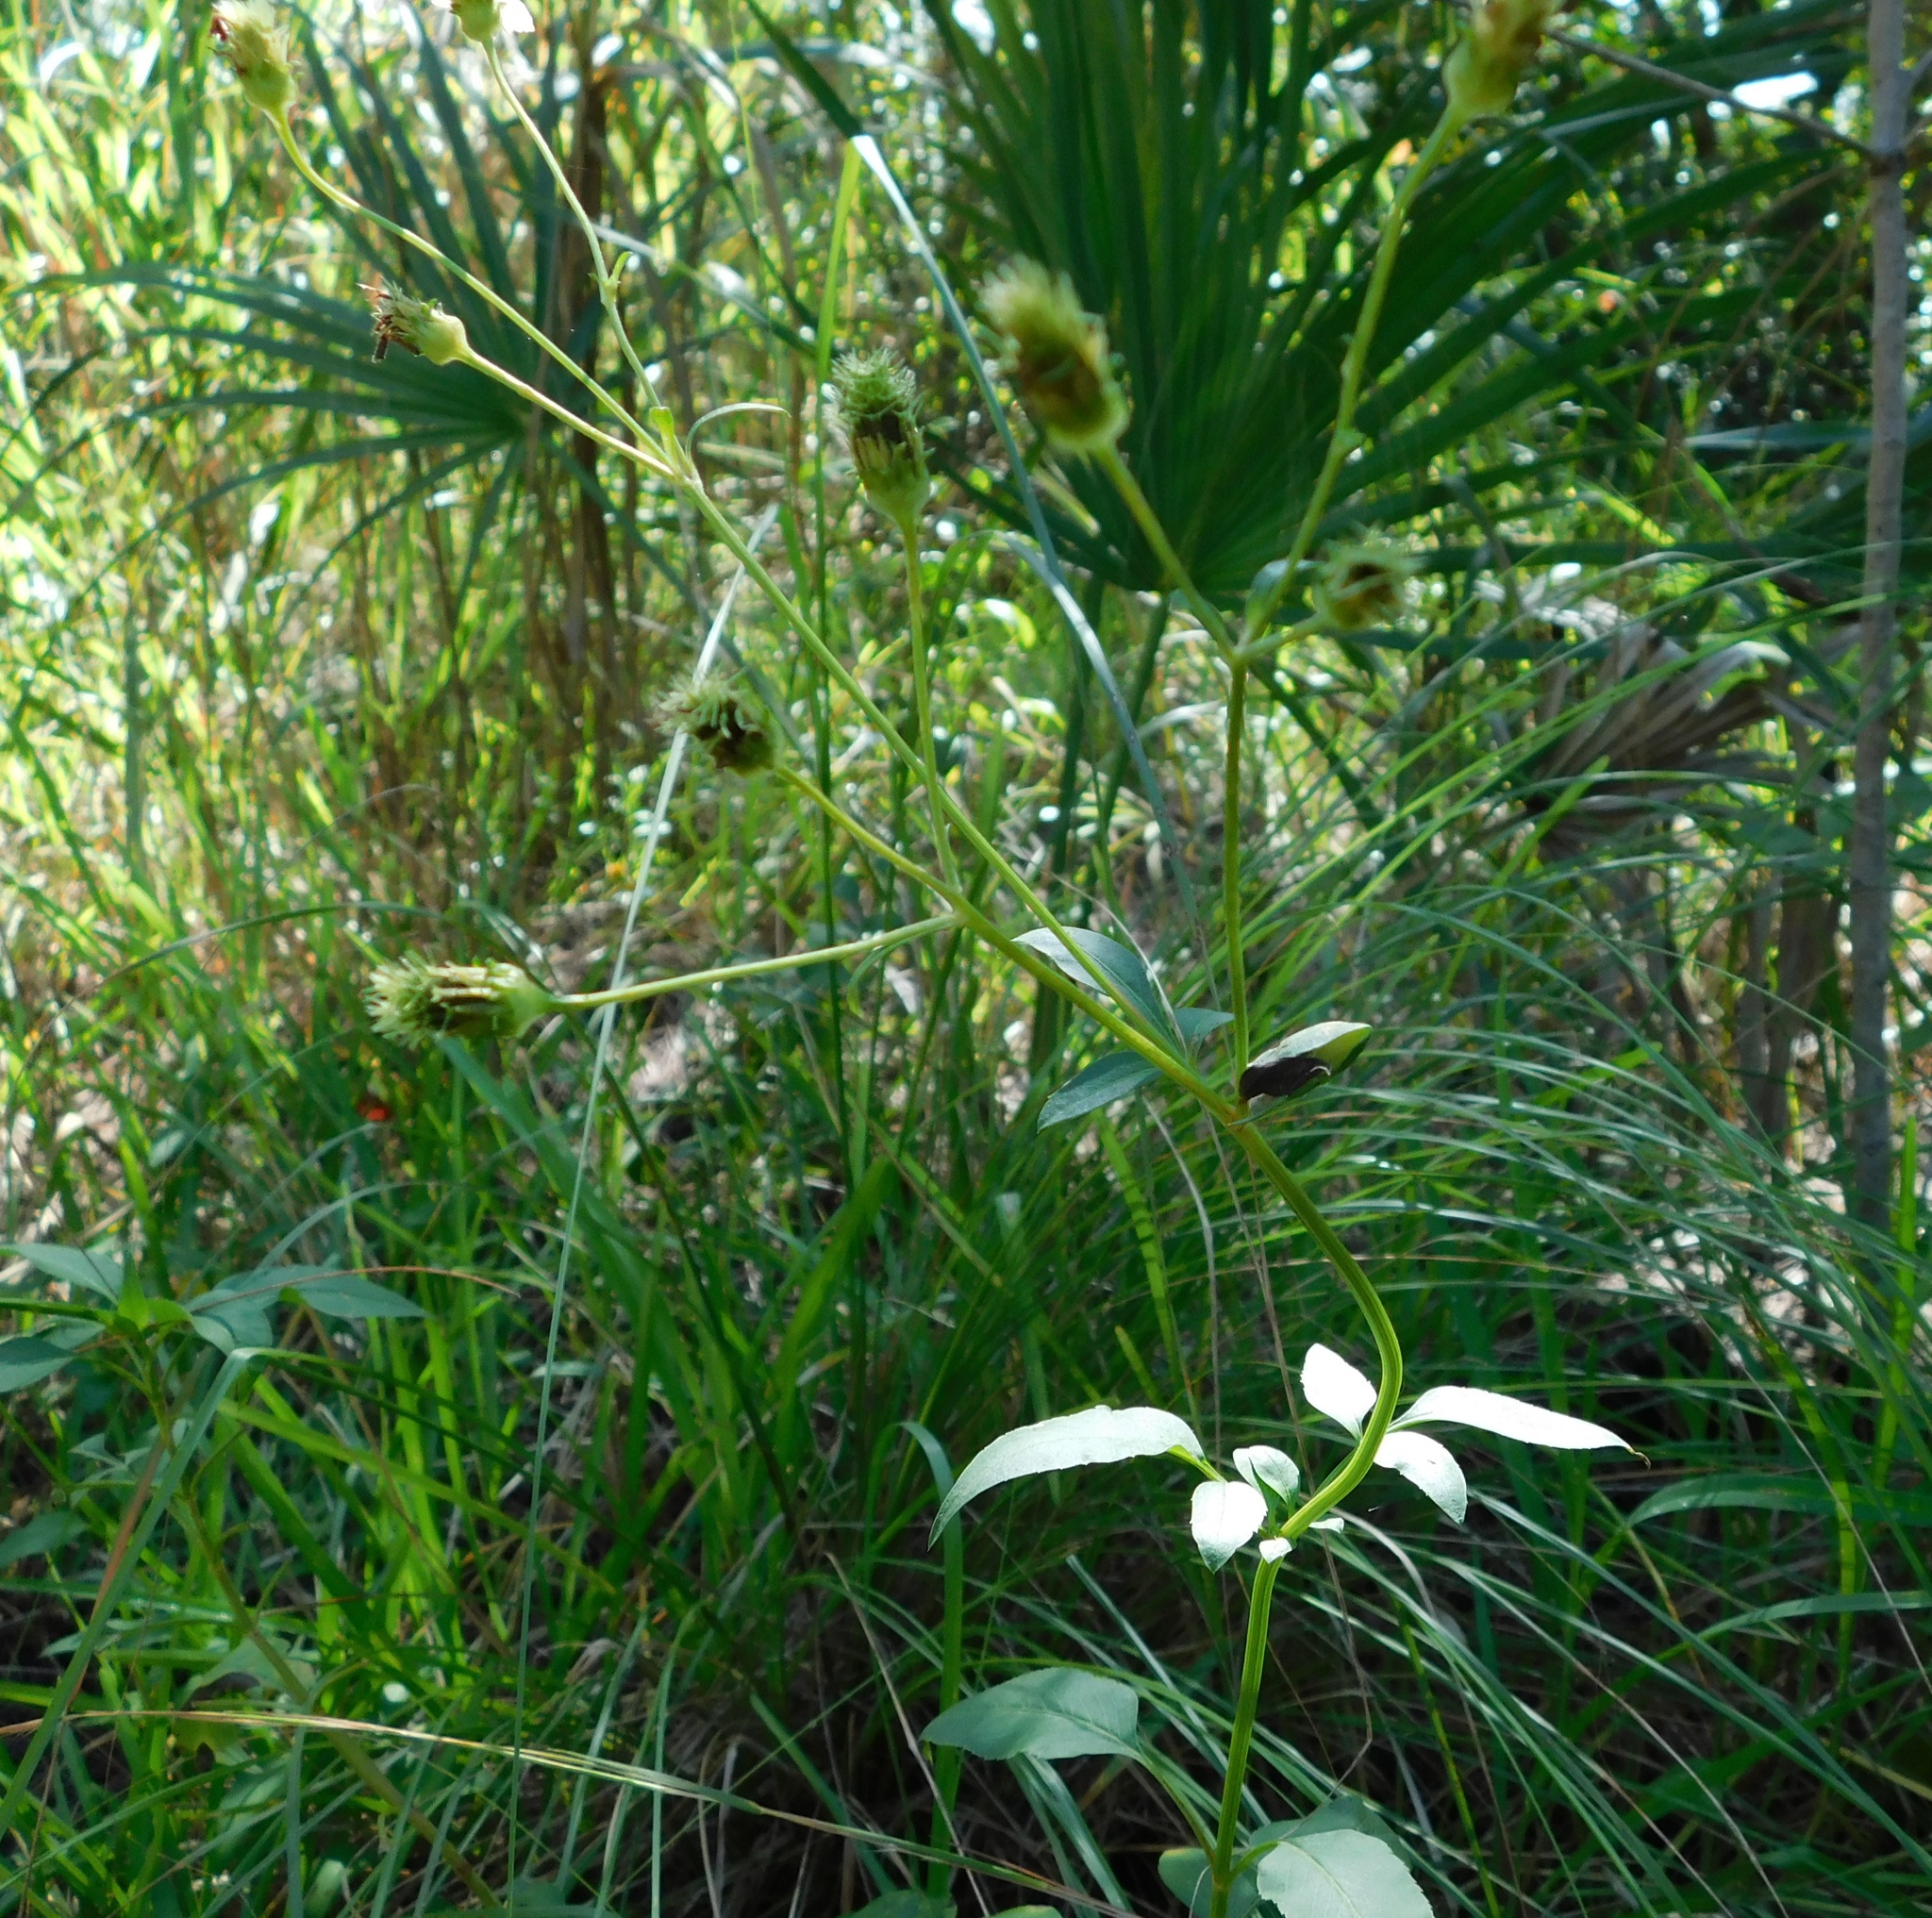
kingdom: Plantae
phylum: Tracheophyta
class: Magnoliopsida
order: Asterales
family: Asteraceae
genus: Bidens
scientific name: Bidens alba
